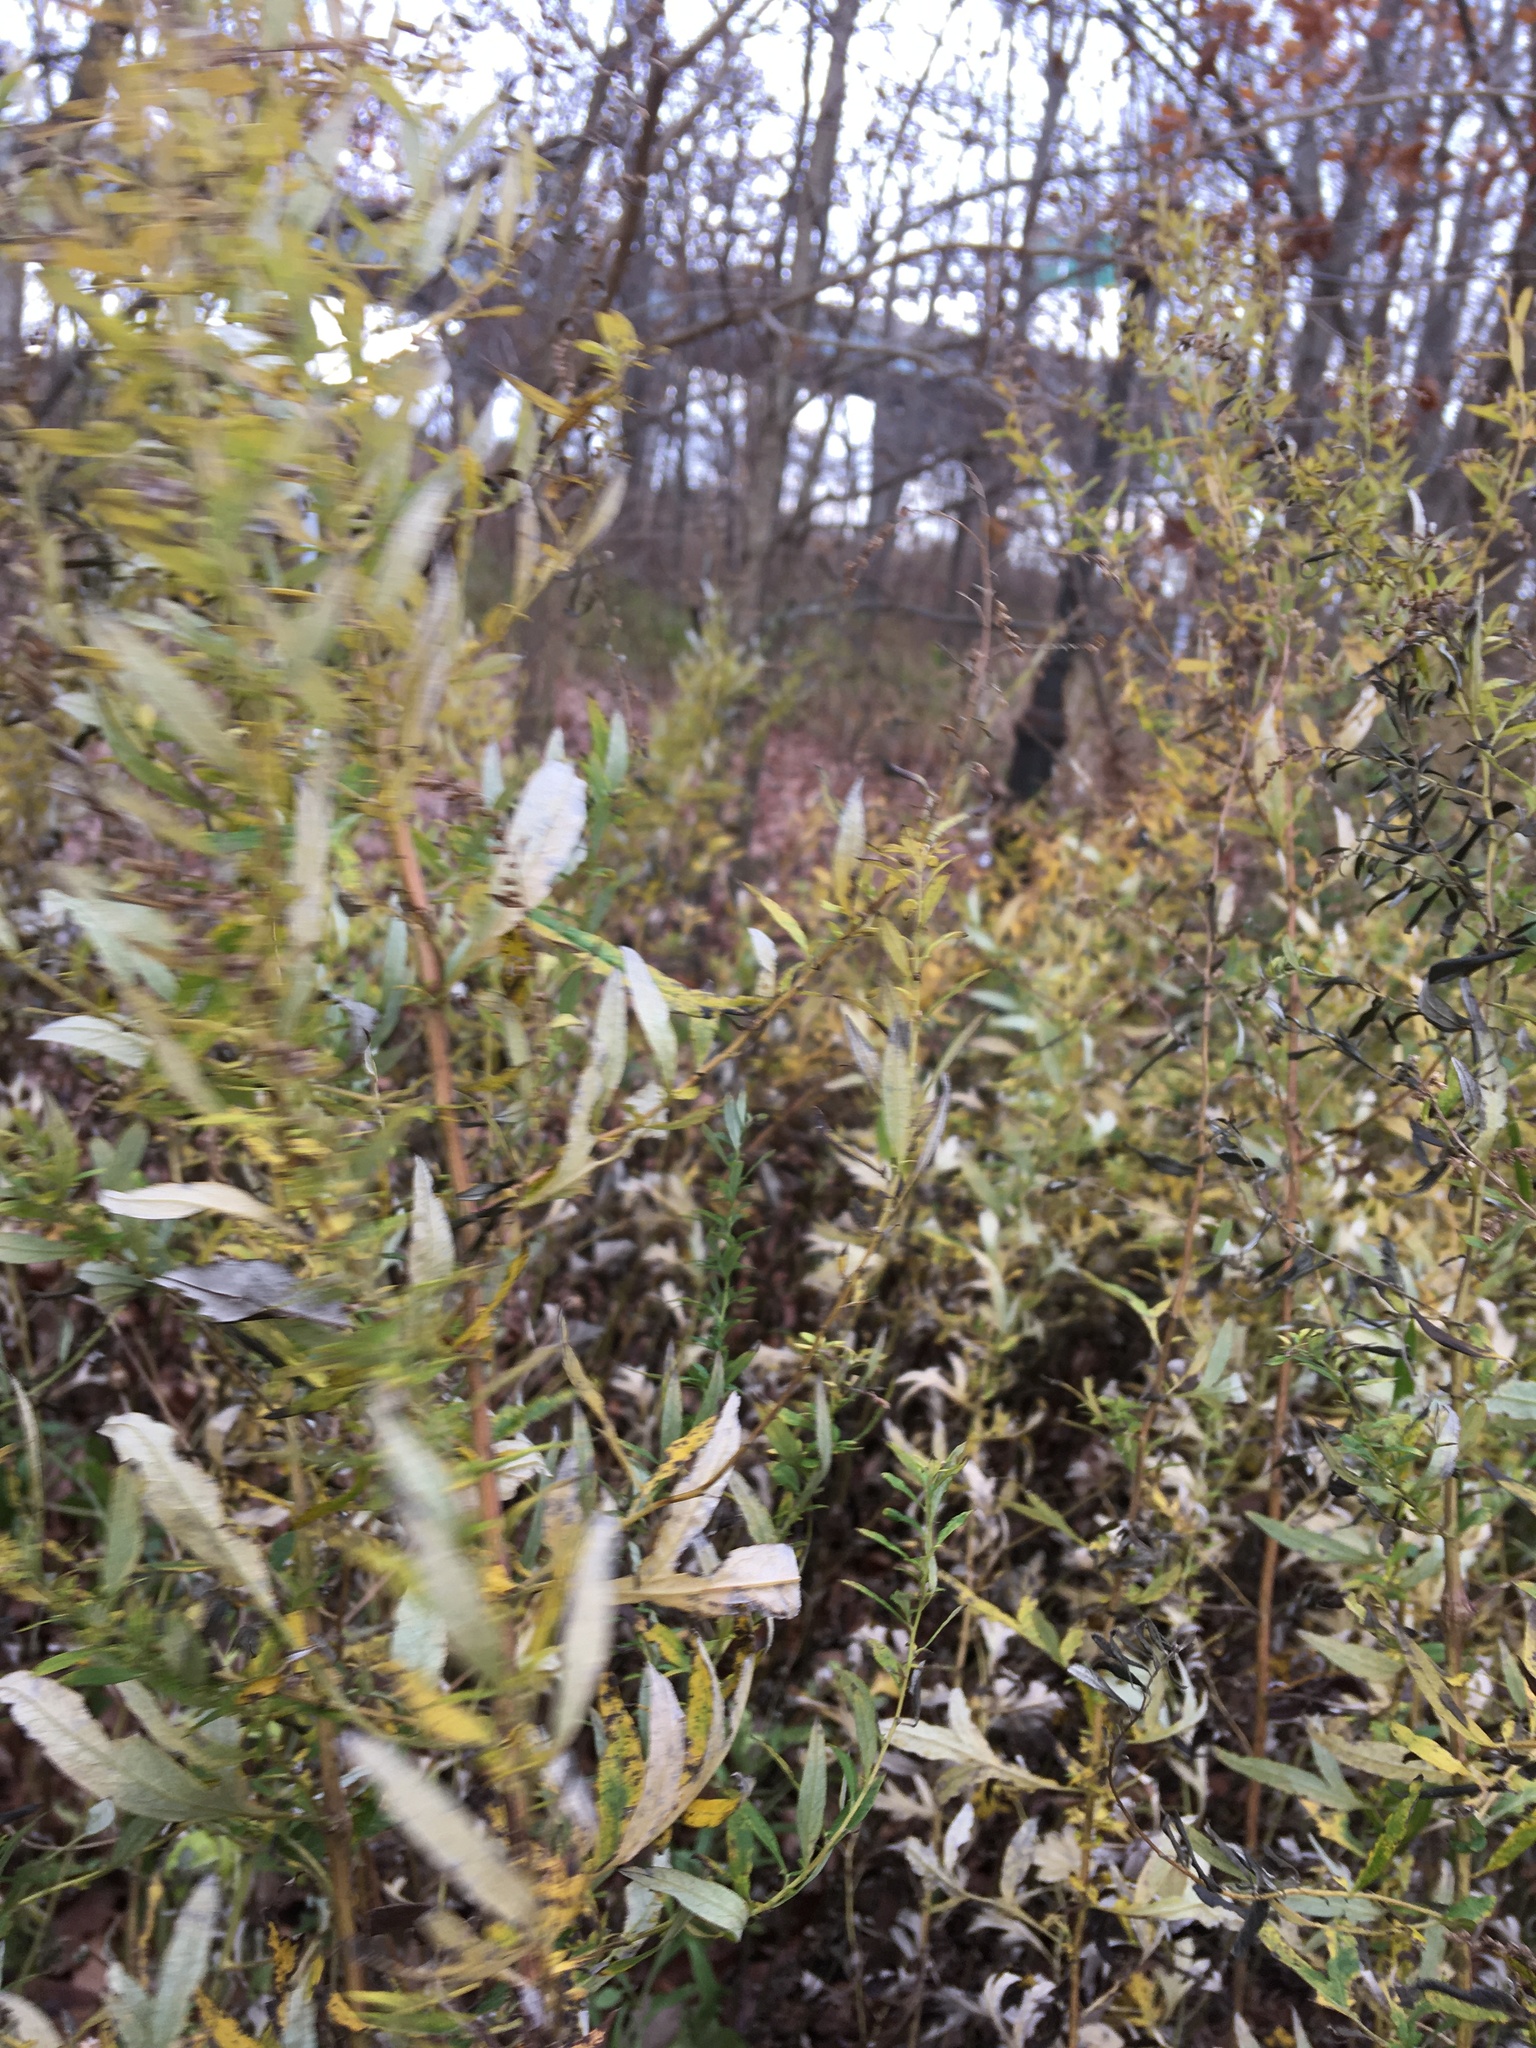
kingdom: Plantae
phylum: Tracheophyta
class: Magnoliopsida
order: Asterales
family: Asteraceae
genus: Artemisia
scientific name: Artemisia vulgaris
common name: Mugwort
